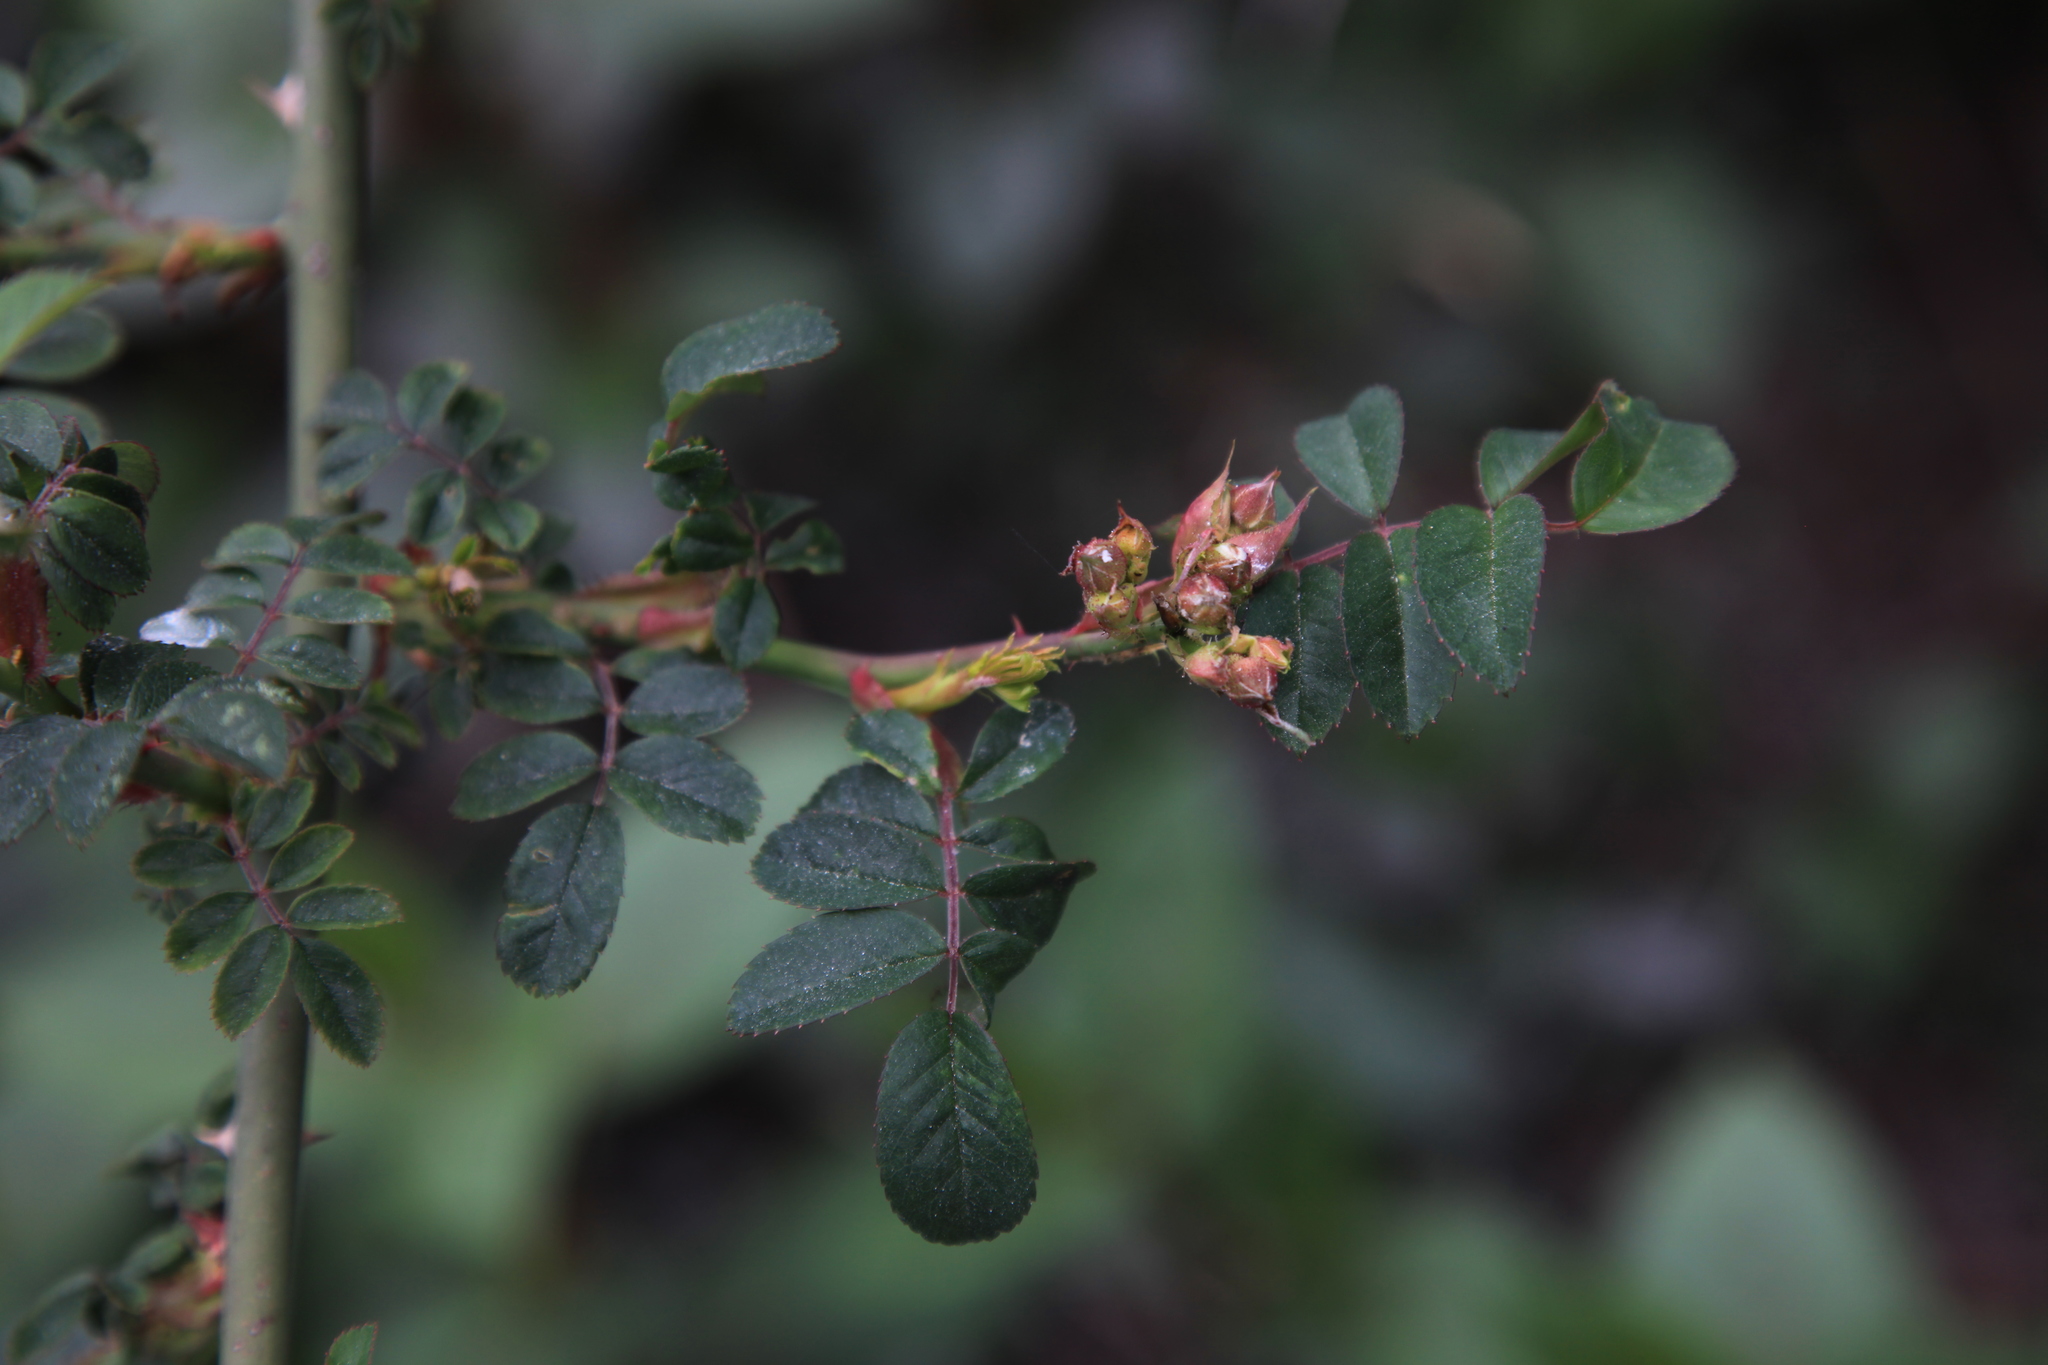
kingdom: Plantae
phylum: Tracheophyta
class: Magnoliopsida
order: Rosales
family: Rosaceae
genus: Rosa
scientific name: Rosa transmorrisonensis
